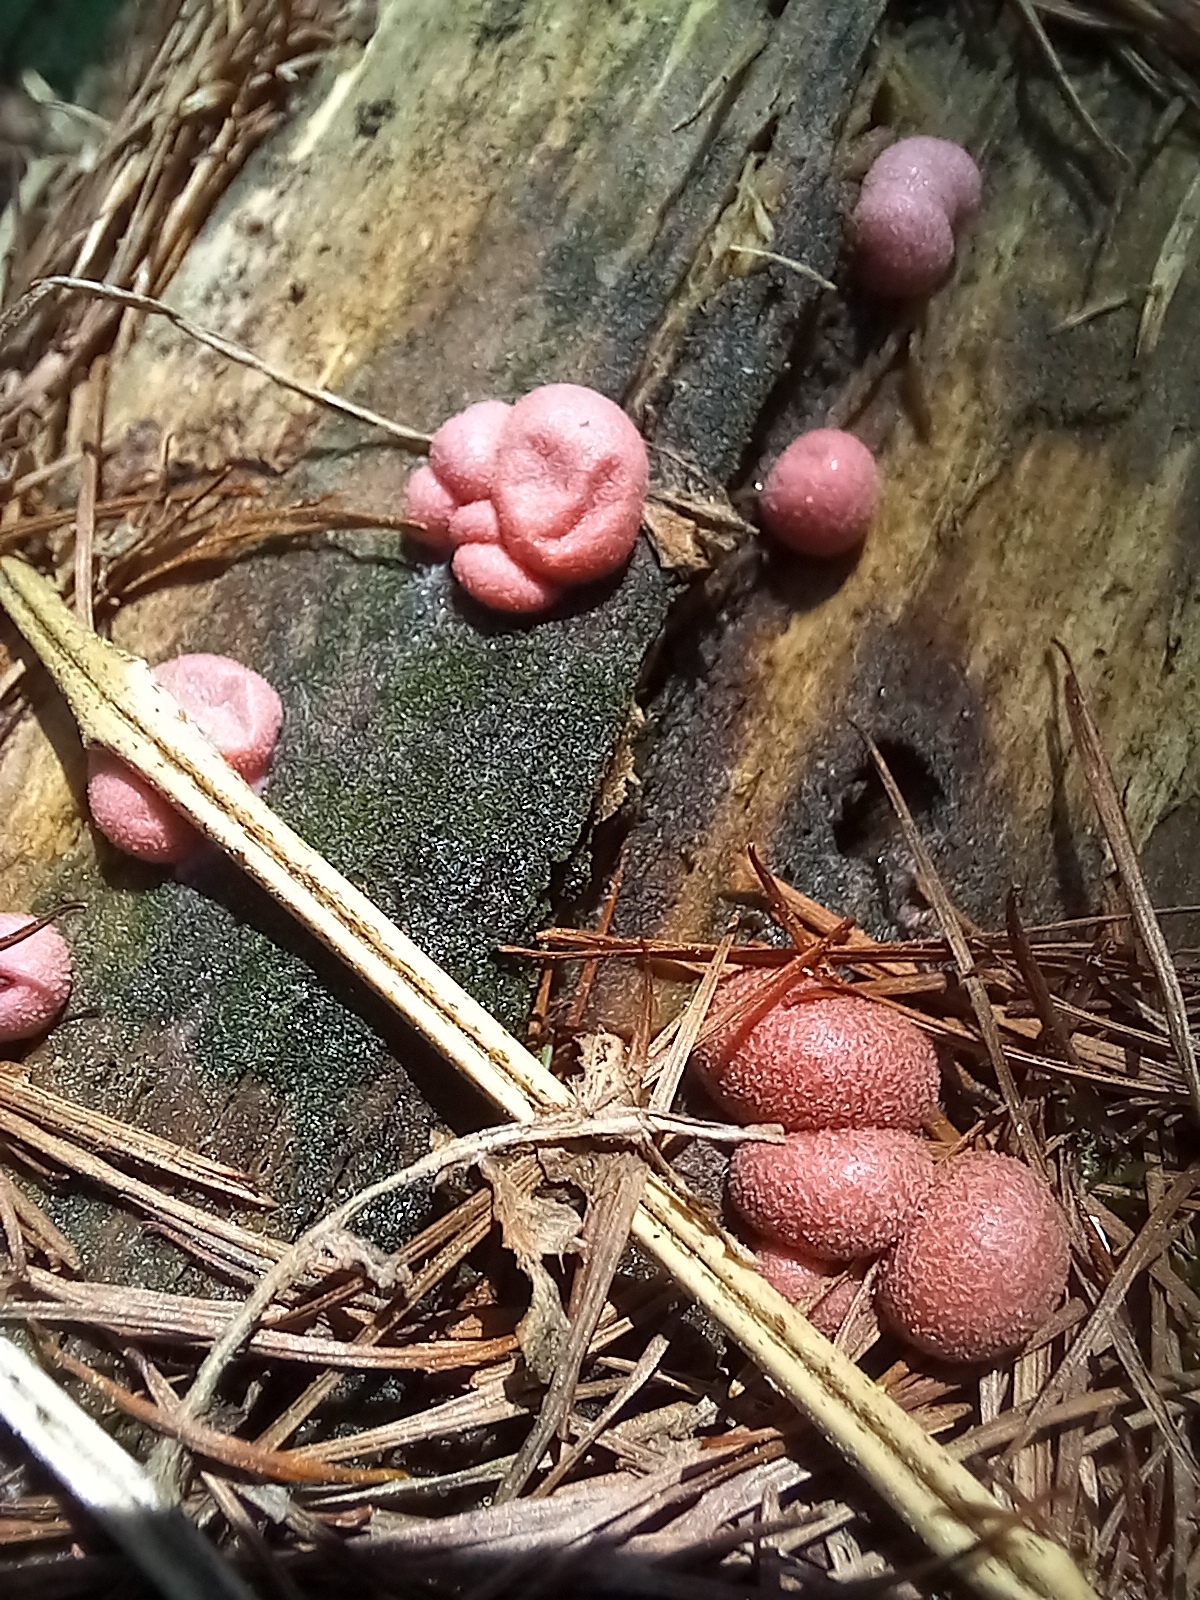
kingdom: Protozoa
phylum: Mycetozoa
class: Myxomycetes
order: Cribrariales
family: Tubiferaceae
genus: Lycogala
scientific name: Lycogala epidendrum
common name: Wolf's milk
